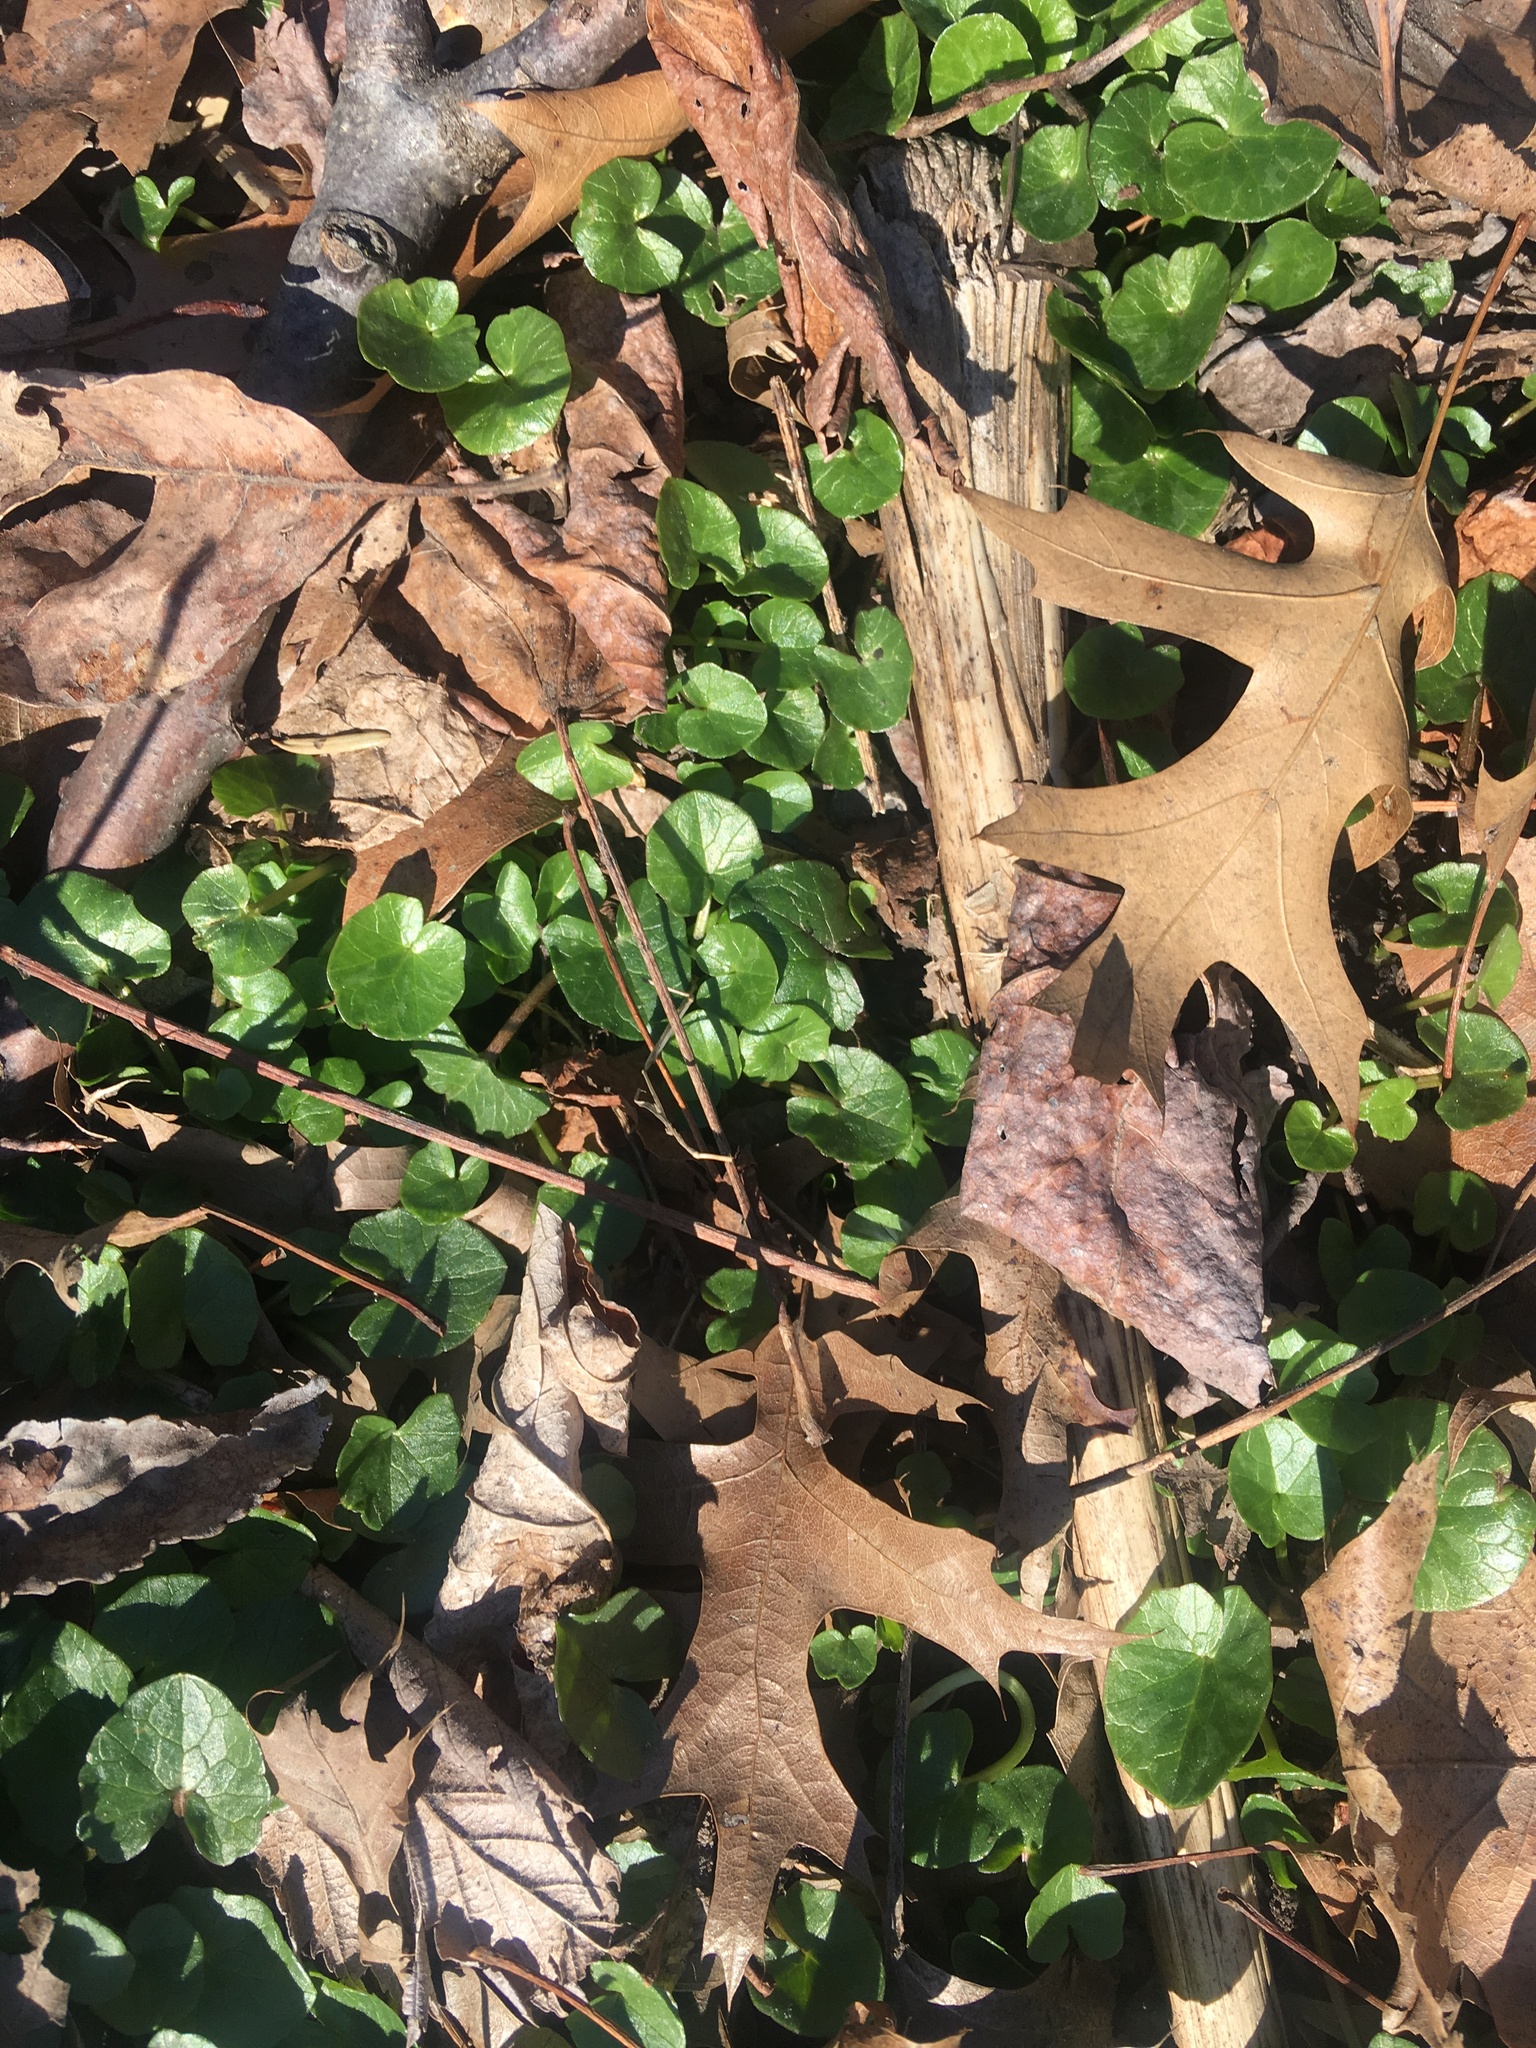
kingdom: Plantae
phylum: Tracheophyta
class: Magnoliopsida
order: Ranunculales
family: Ranunculaceae
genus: Ficaria
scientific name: Ficaria verna
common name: Lesser celandine
